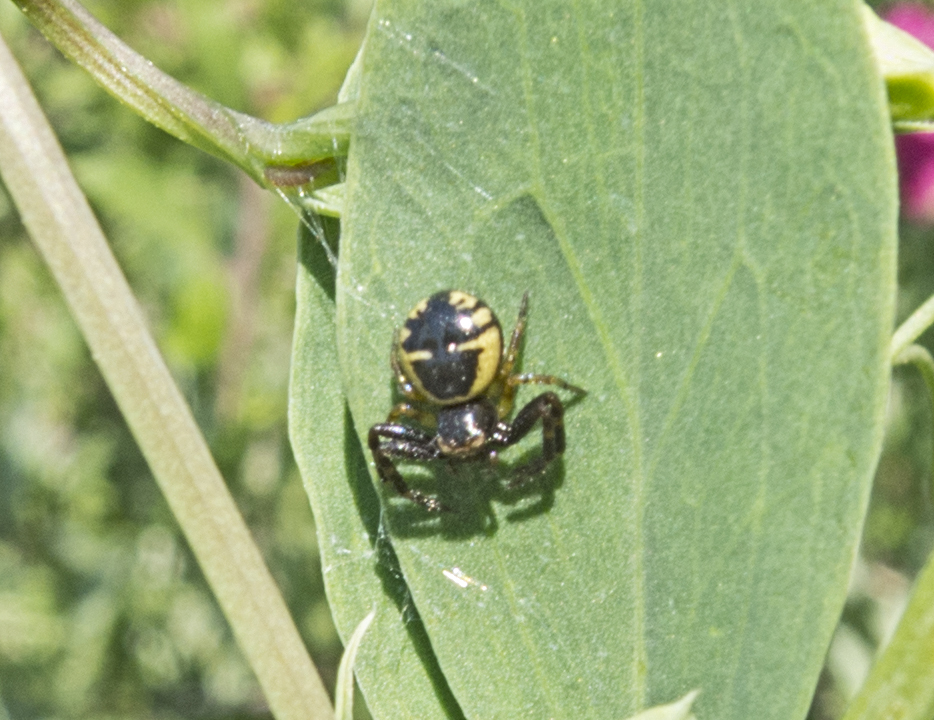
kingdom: Animalia
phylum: Arthropoda
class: Arachnida
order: Araneae
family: Thomisidae
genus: Synema
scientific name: Synema globosum
